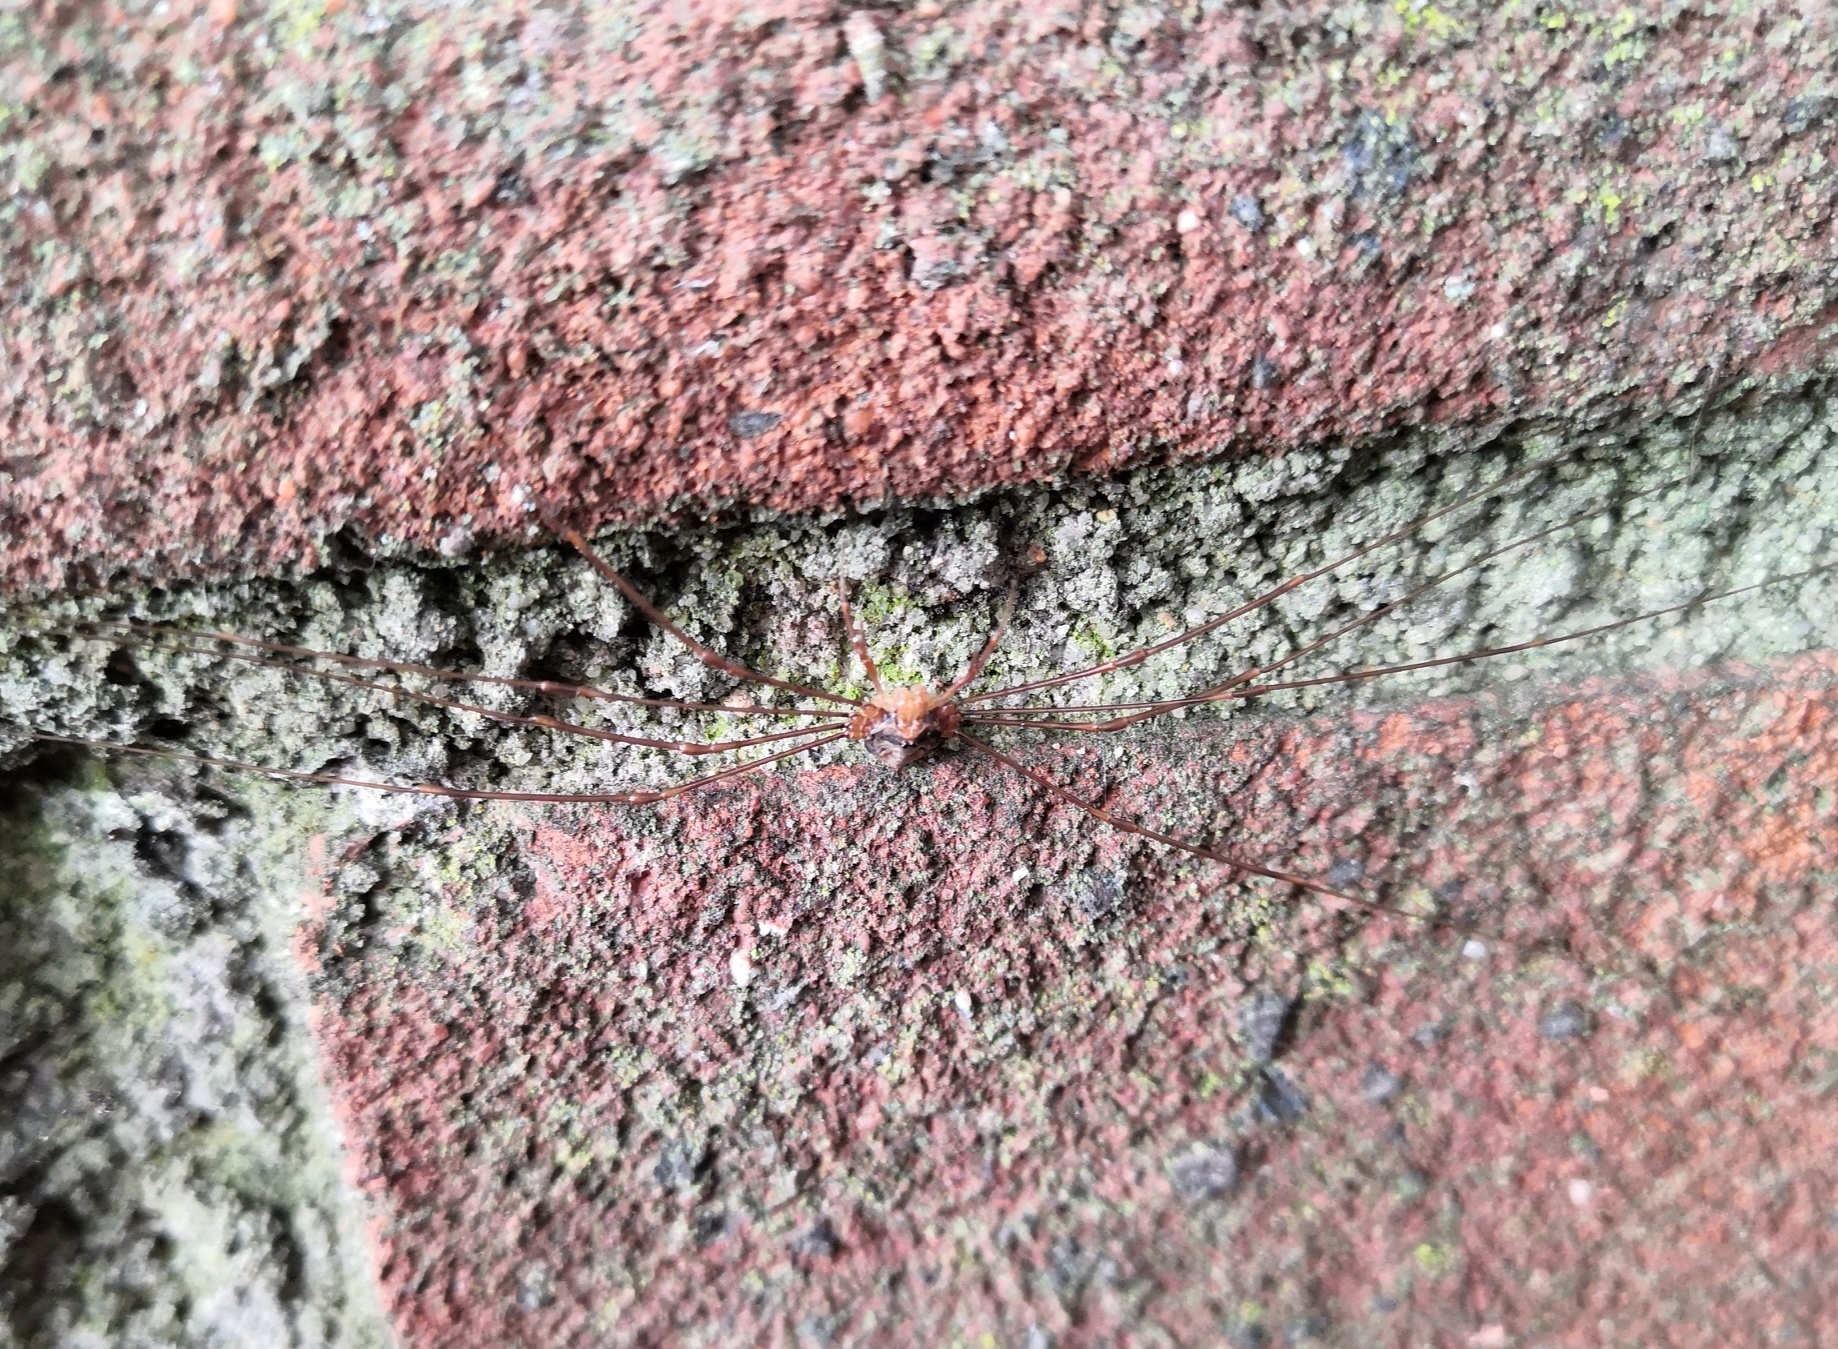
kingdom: Animalia
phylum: Arthropoda
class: Arachnida
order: Opiliones
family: Phalangiidae
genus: Dicranopalpus
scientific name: Dicranopalpus ramosus
